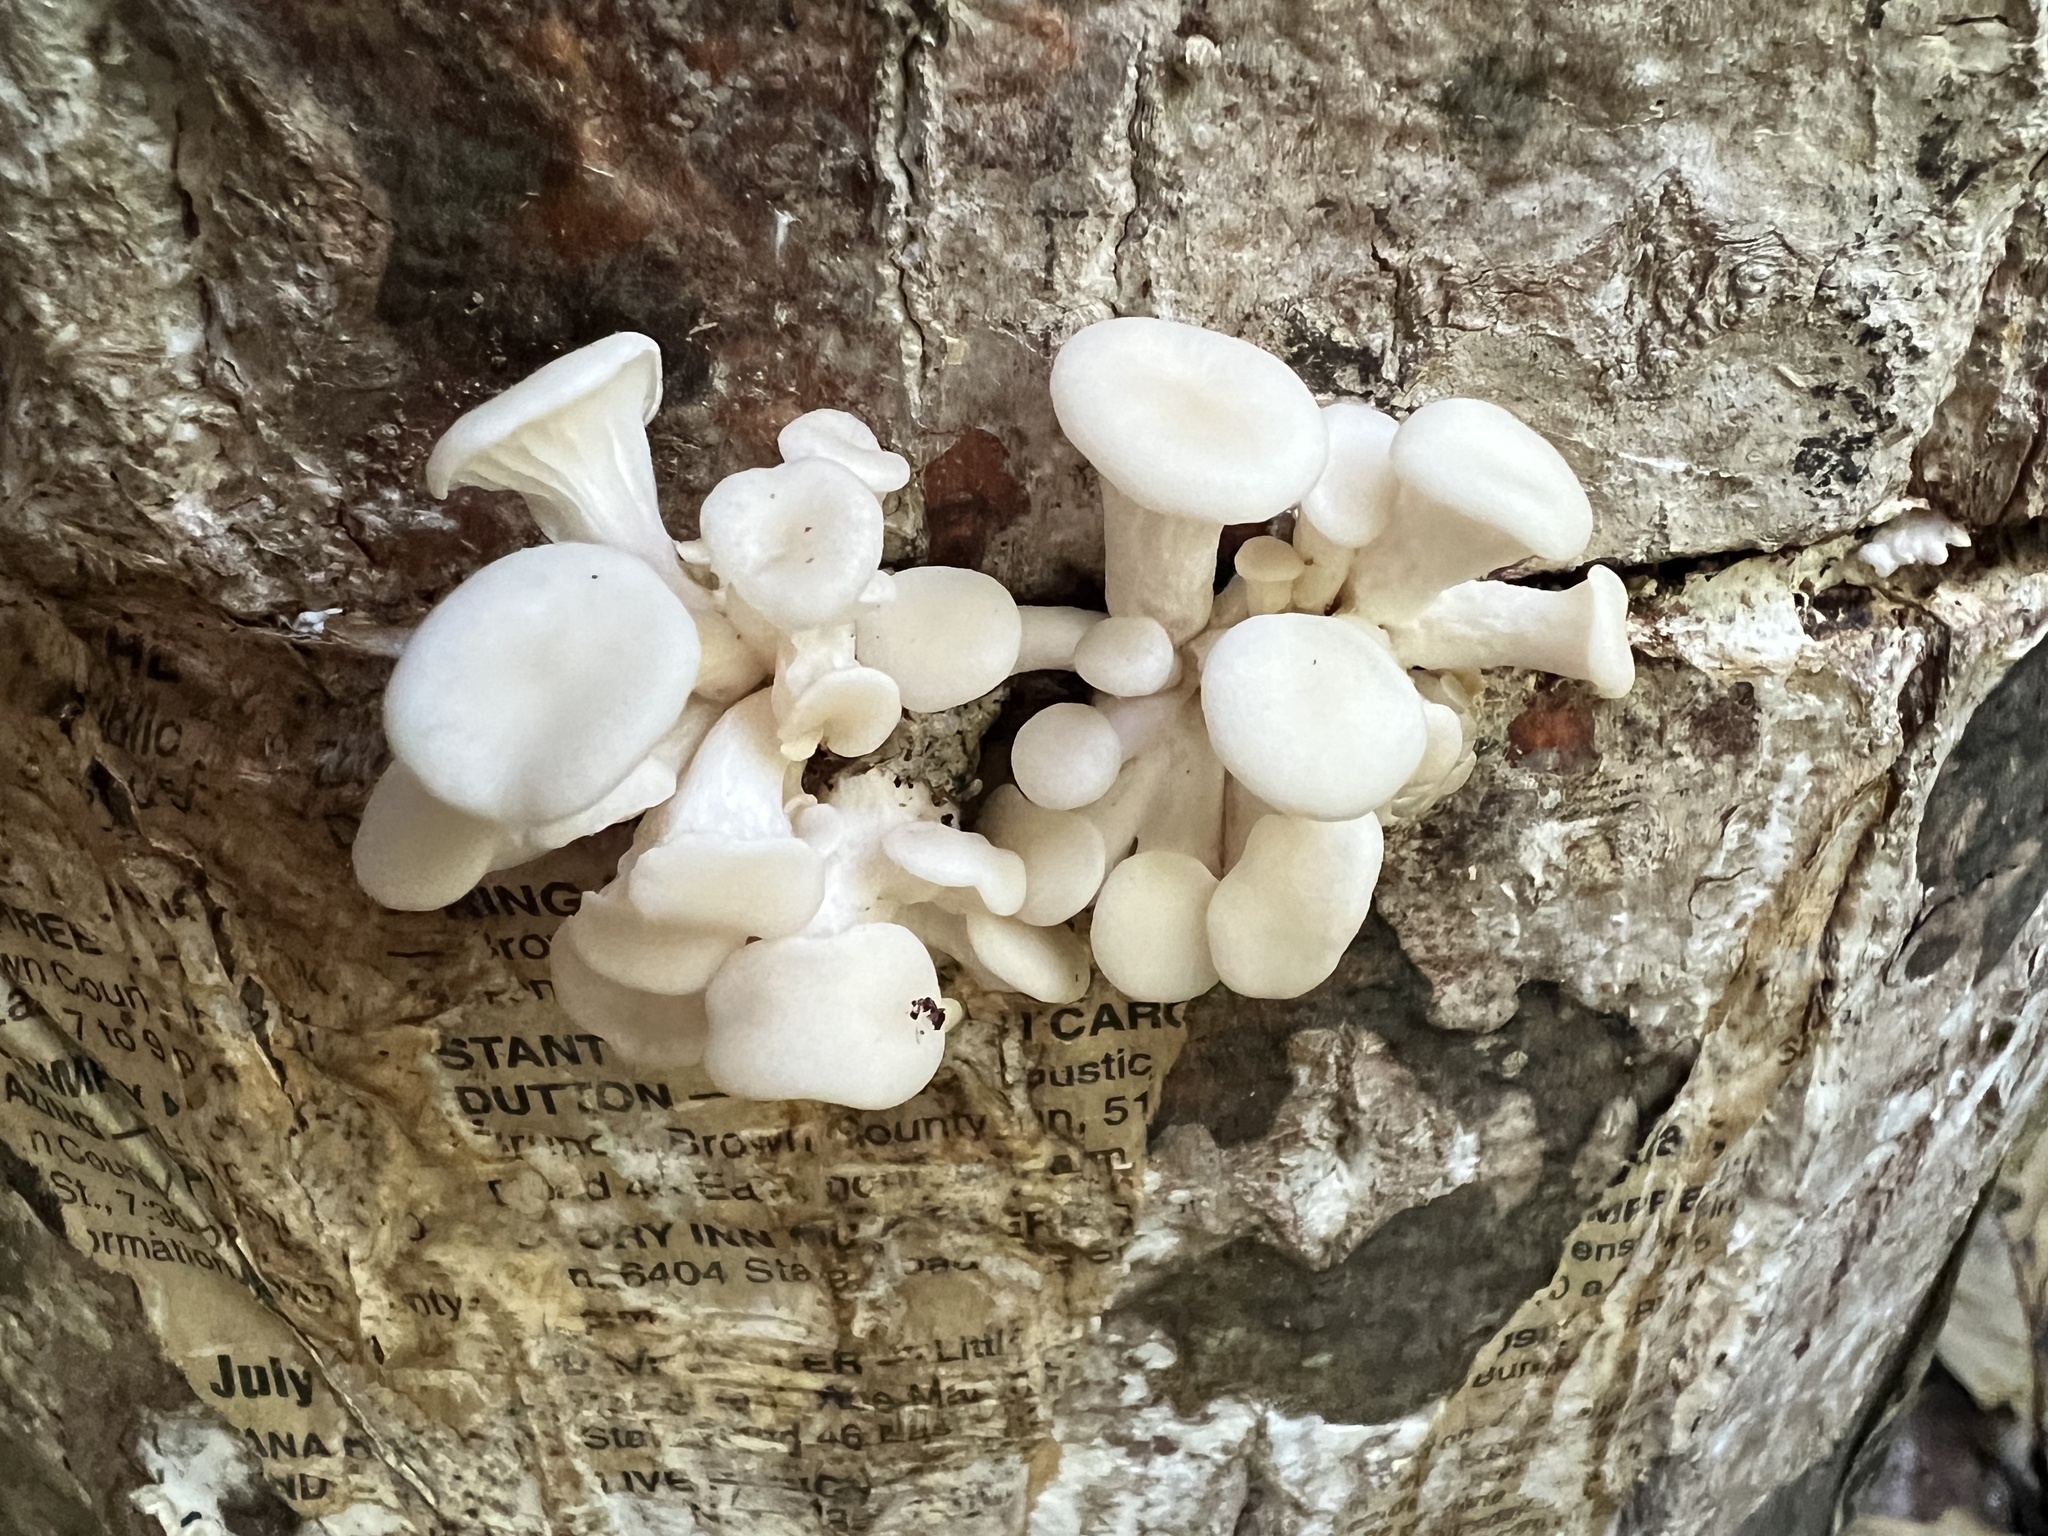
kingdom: Fungi
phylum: Basidiomycota
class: Agaricomycetes
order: Agaricales
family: Pleurotaceae
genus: Pleurotus
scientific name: Pleurotus pulmonarius
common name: Pale oyster
